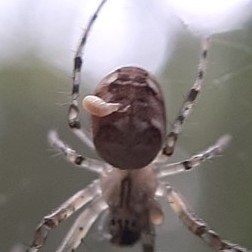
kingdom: Animalia
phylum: Arthropoda
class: Insecta
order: Hymenoptera
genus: Ephialtina
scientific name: Ephialtina
